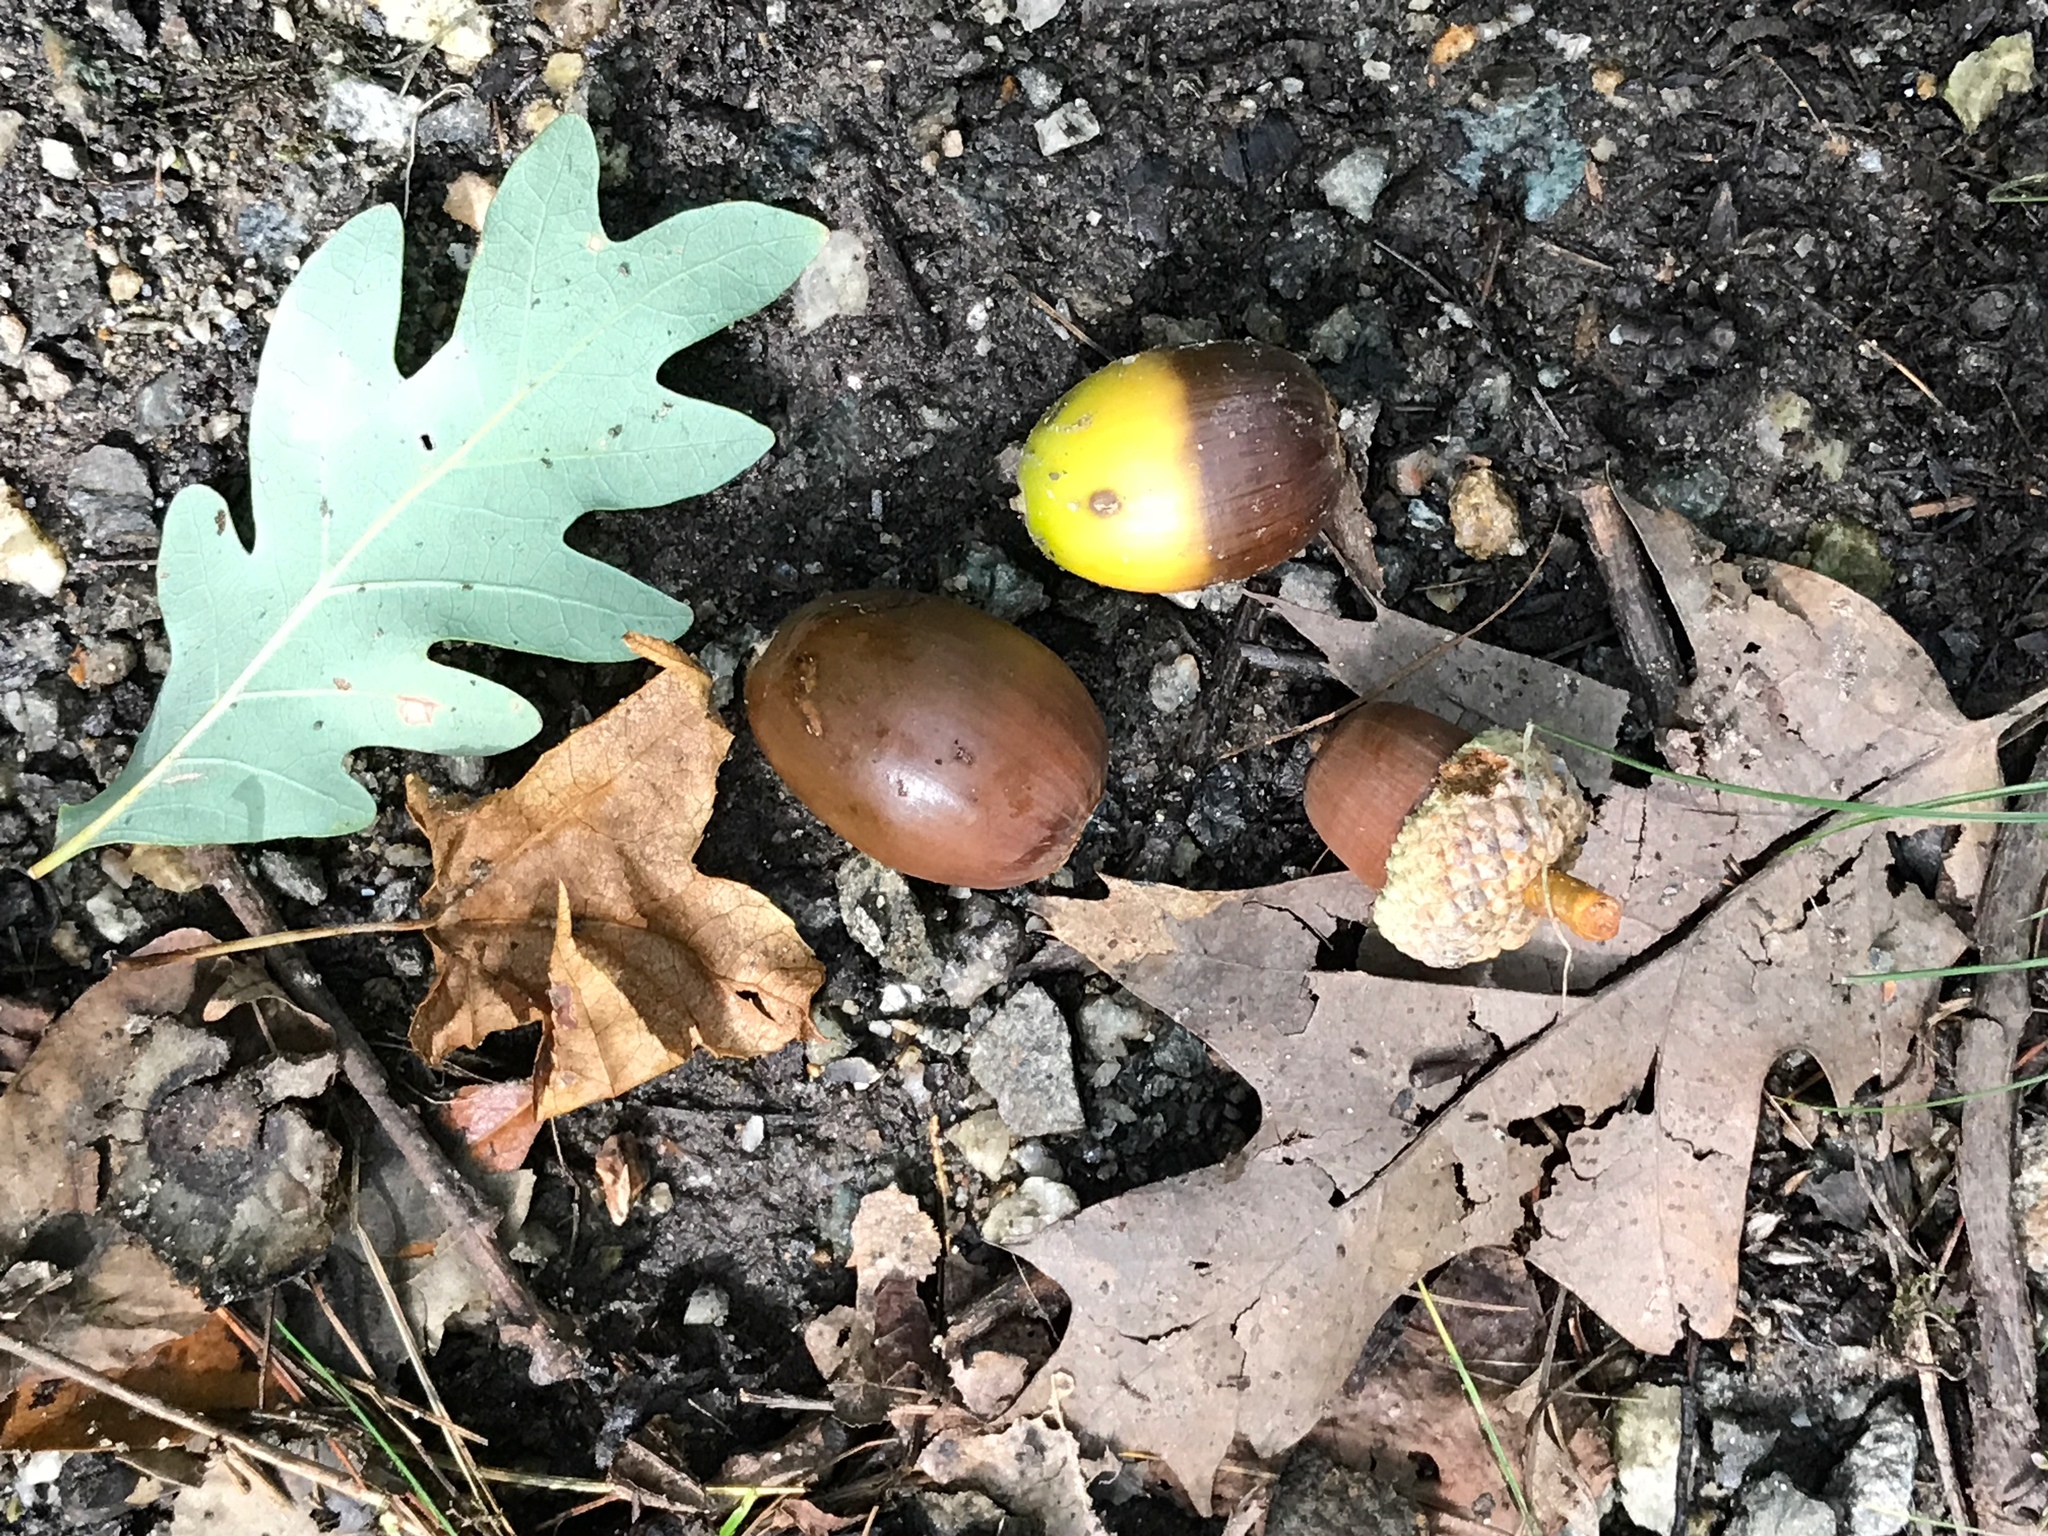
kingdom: Plantae
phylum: Tracheophyta
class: Magnoliopsida
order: Fagales
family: Fagaceae
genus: Quercus
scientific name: Quercus alba
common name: White oak
